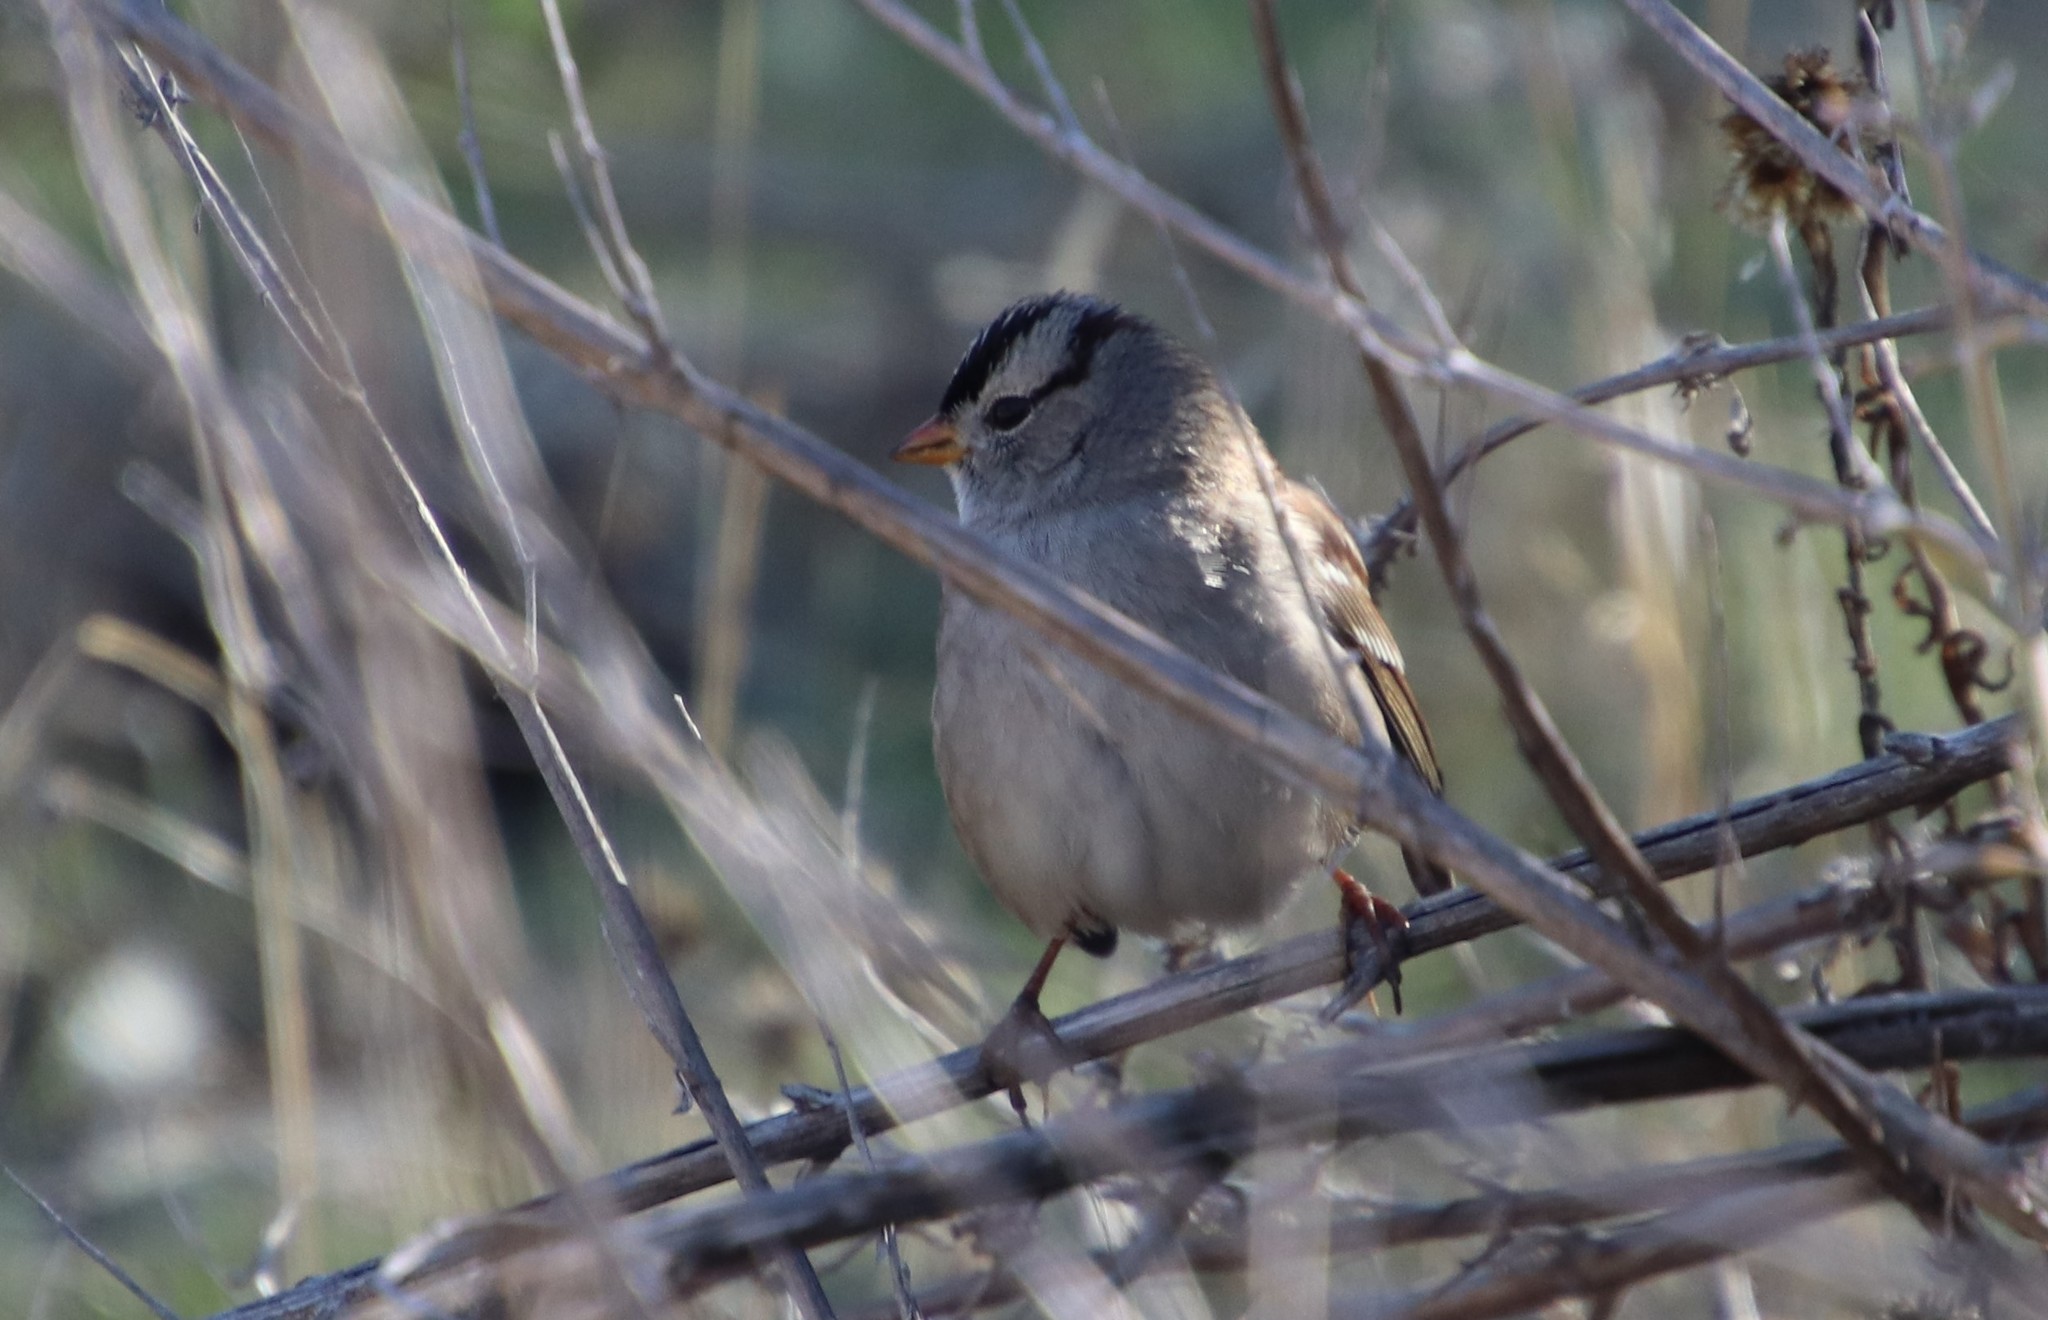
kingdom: Animalia
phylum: Chordata
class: Aves
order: Passeriformes
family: Passerellidae
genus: Zonotrichia
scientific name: Zonotrichia leucophrys
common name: White-crowned sparrow
